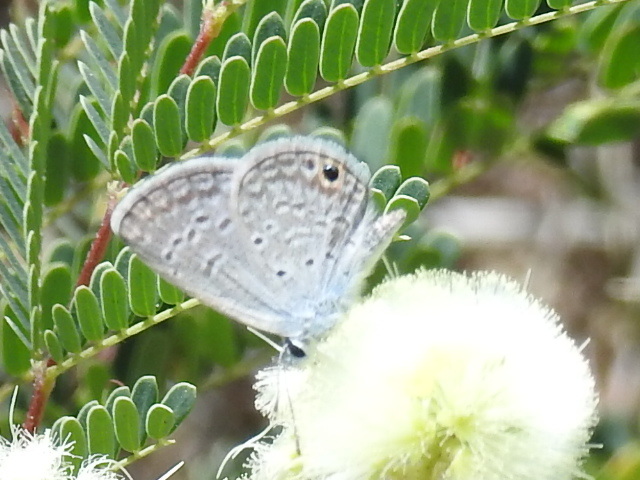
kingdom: Animalia
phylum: Arthropoda
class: Insecta
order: Lepidoptera
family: Lycaenidae
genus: Hemiargus
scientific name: Hemiargus ceraunus
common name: Ceraunus blue
